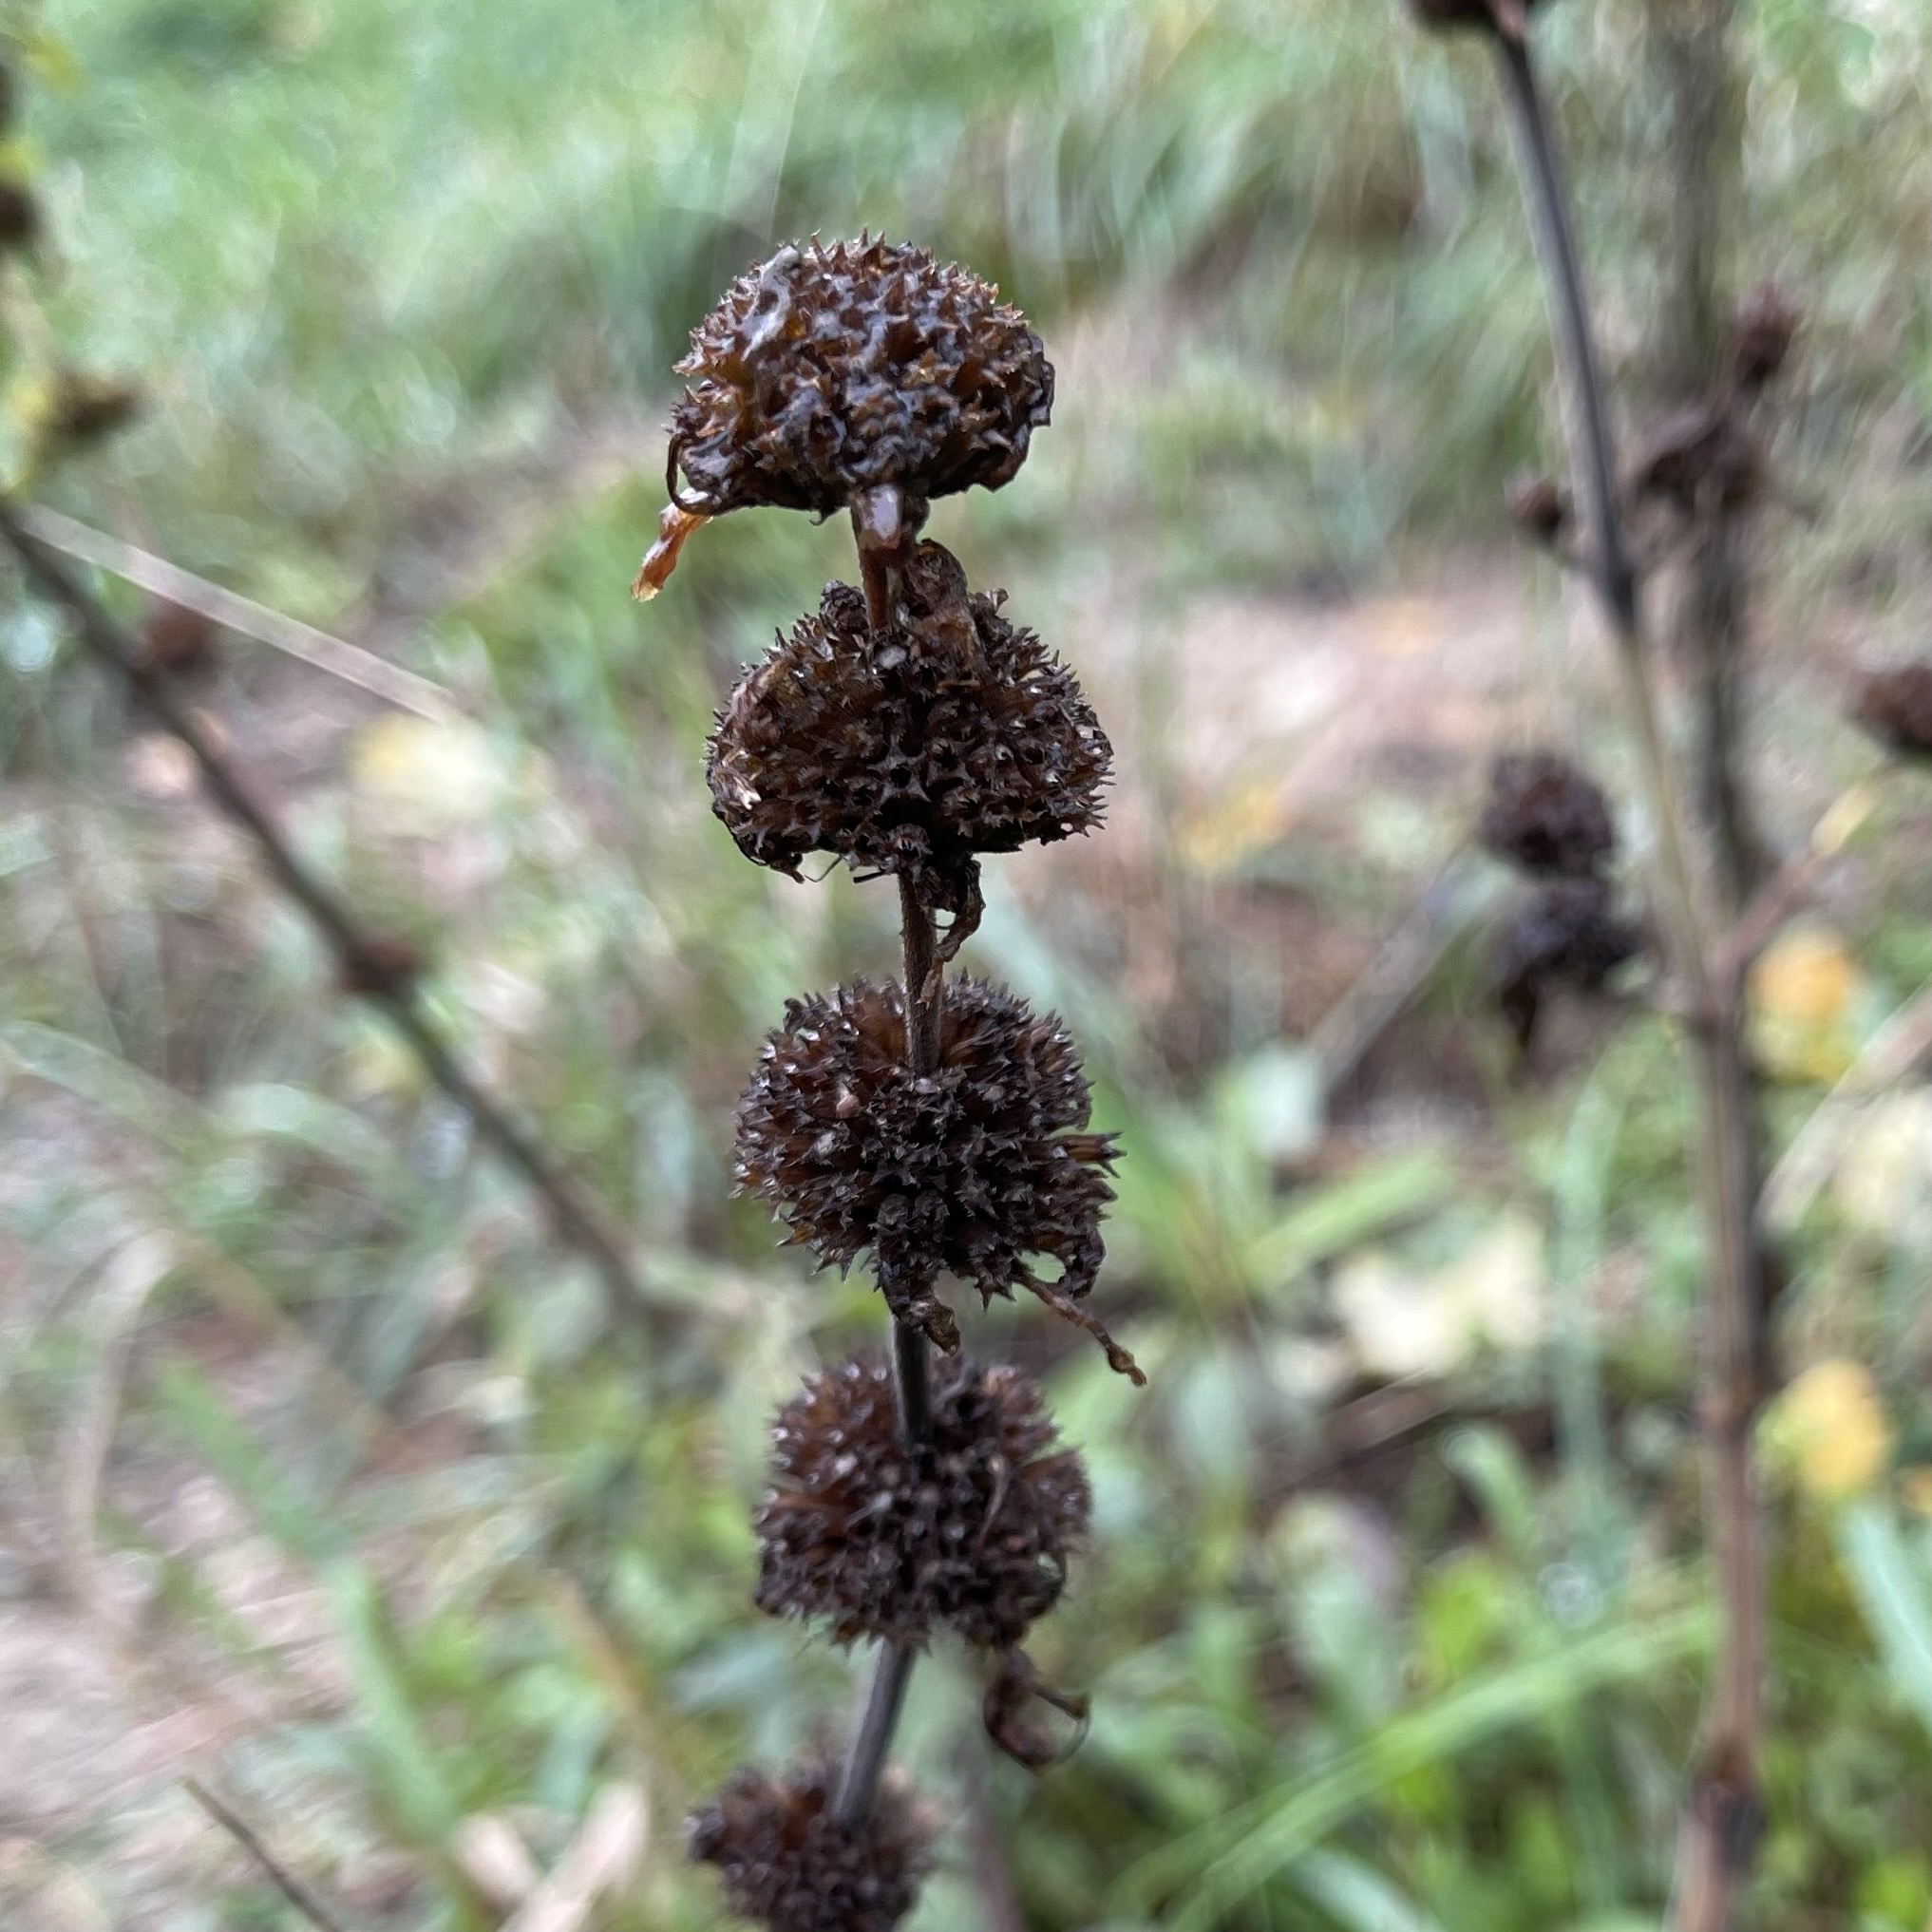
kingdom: Plantae
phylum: Tracheophyta
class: Magnoliopsida
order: Lamiales
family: Lamiaceae
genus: Monarda
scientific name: Monarda punctata
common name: Dotted monarda
